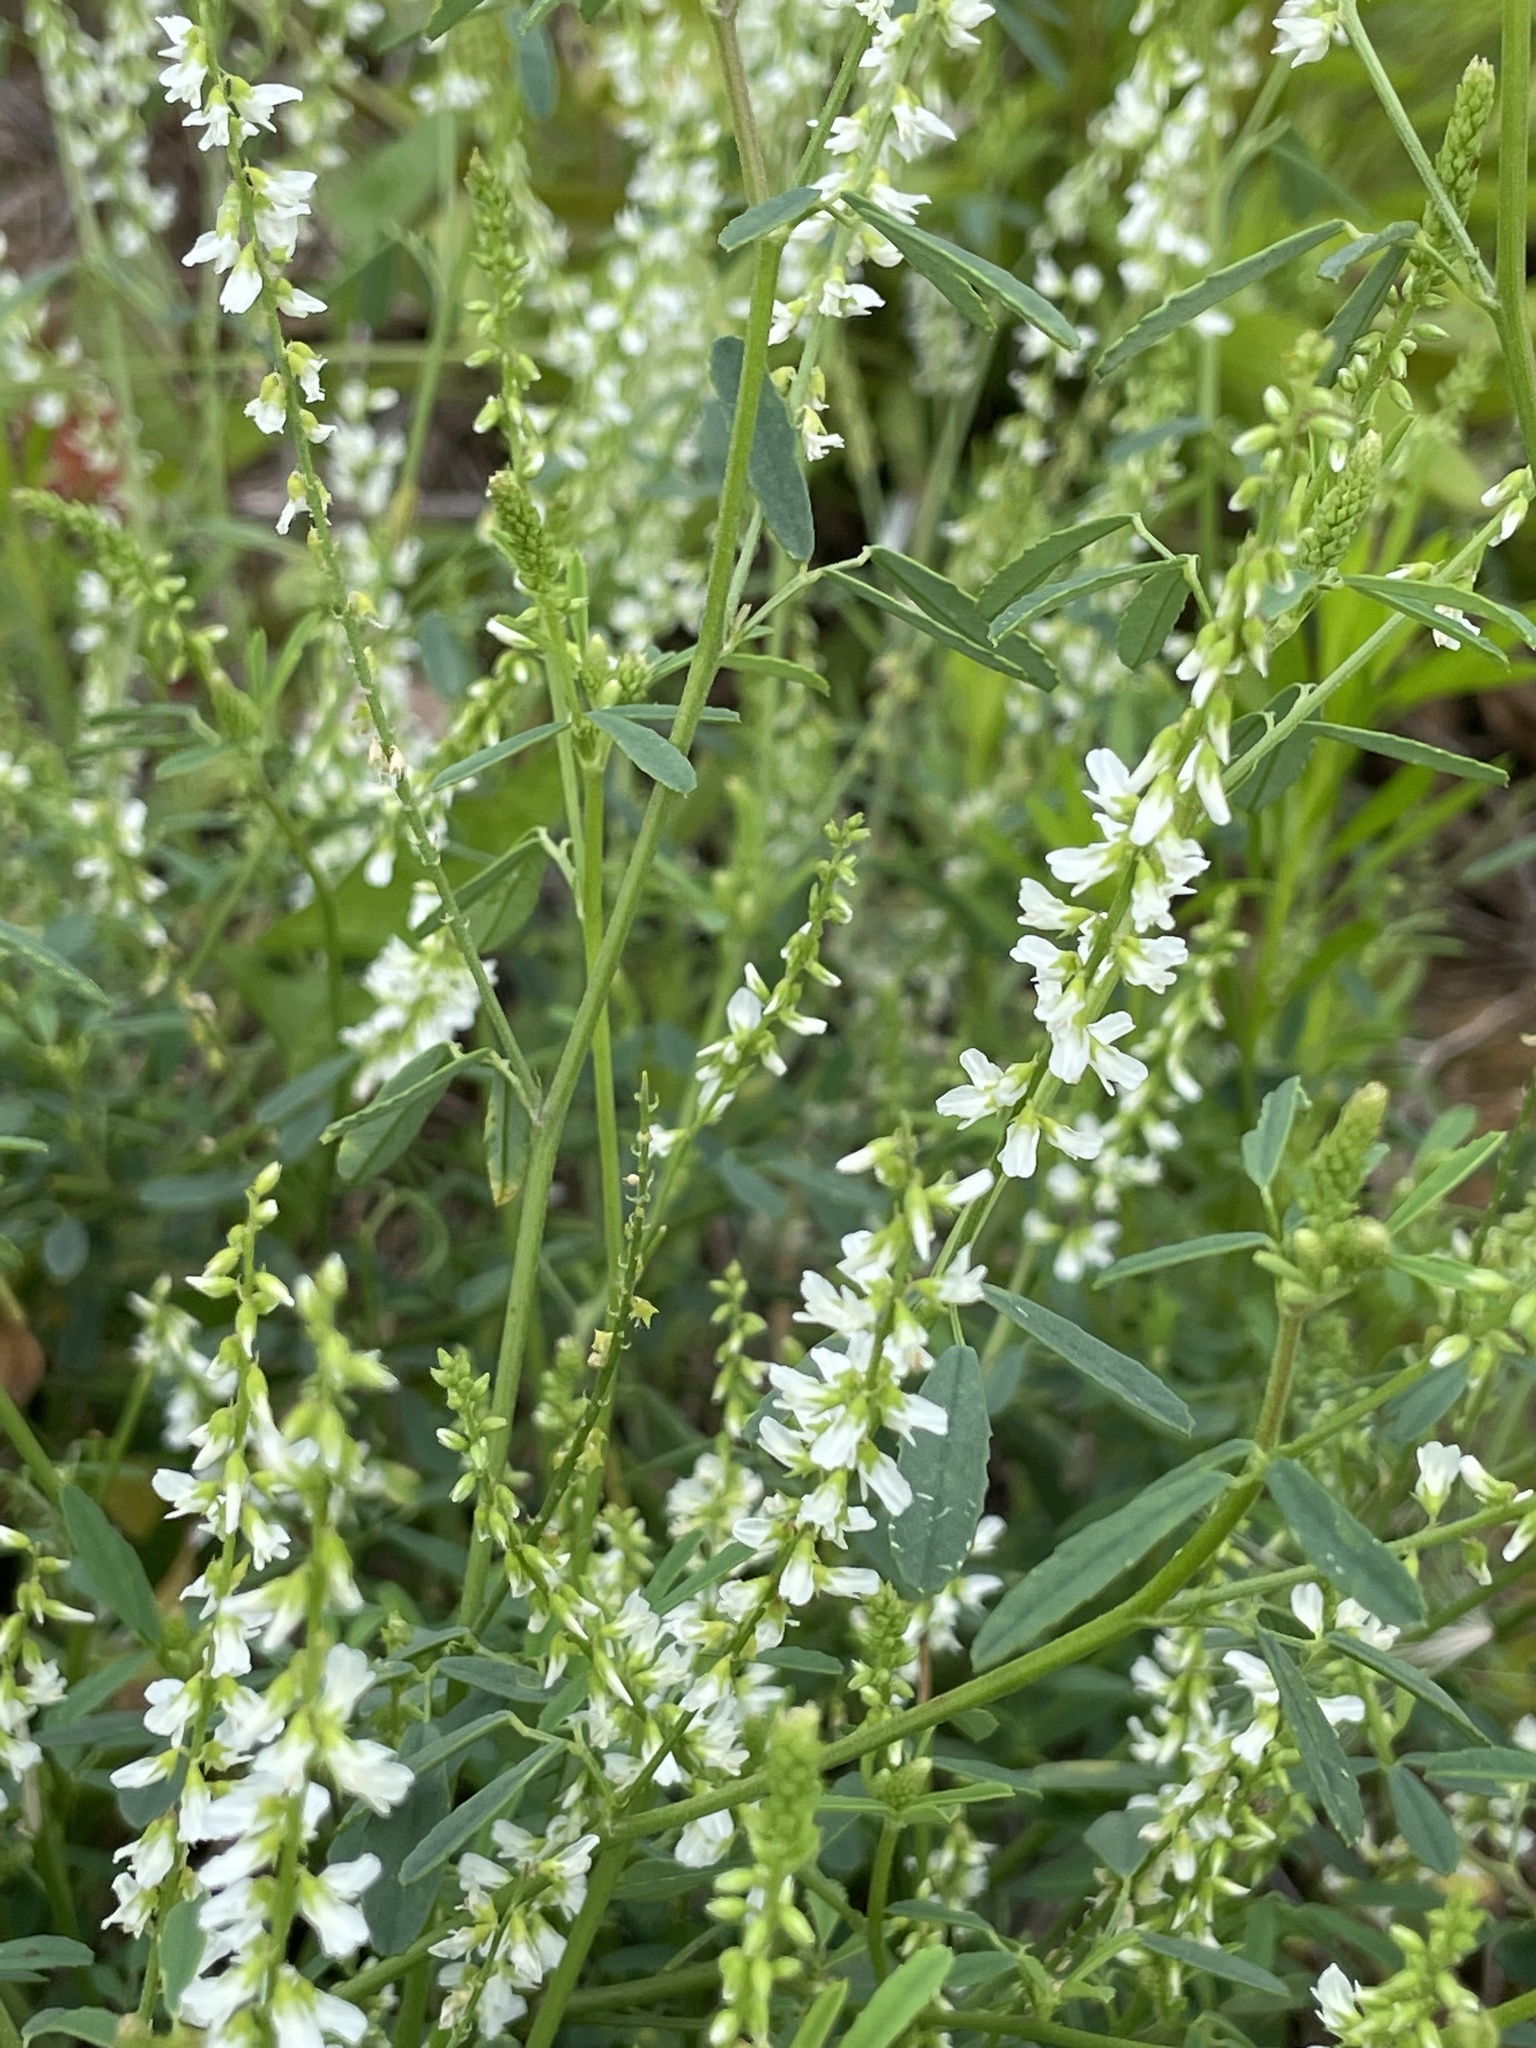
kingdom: Plantae
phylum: Tracheophyta
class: Magnoliopsida
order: Fabales
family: Fabaceae
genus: Melilotus
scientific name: Melilotus albus
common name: White melilot
